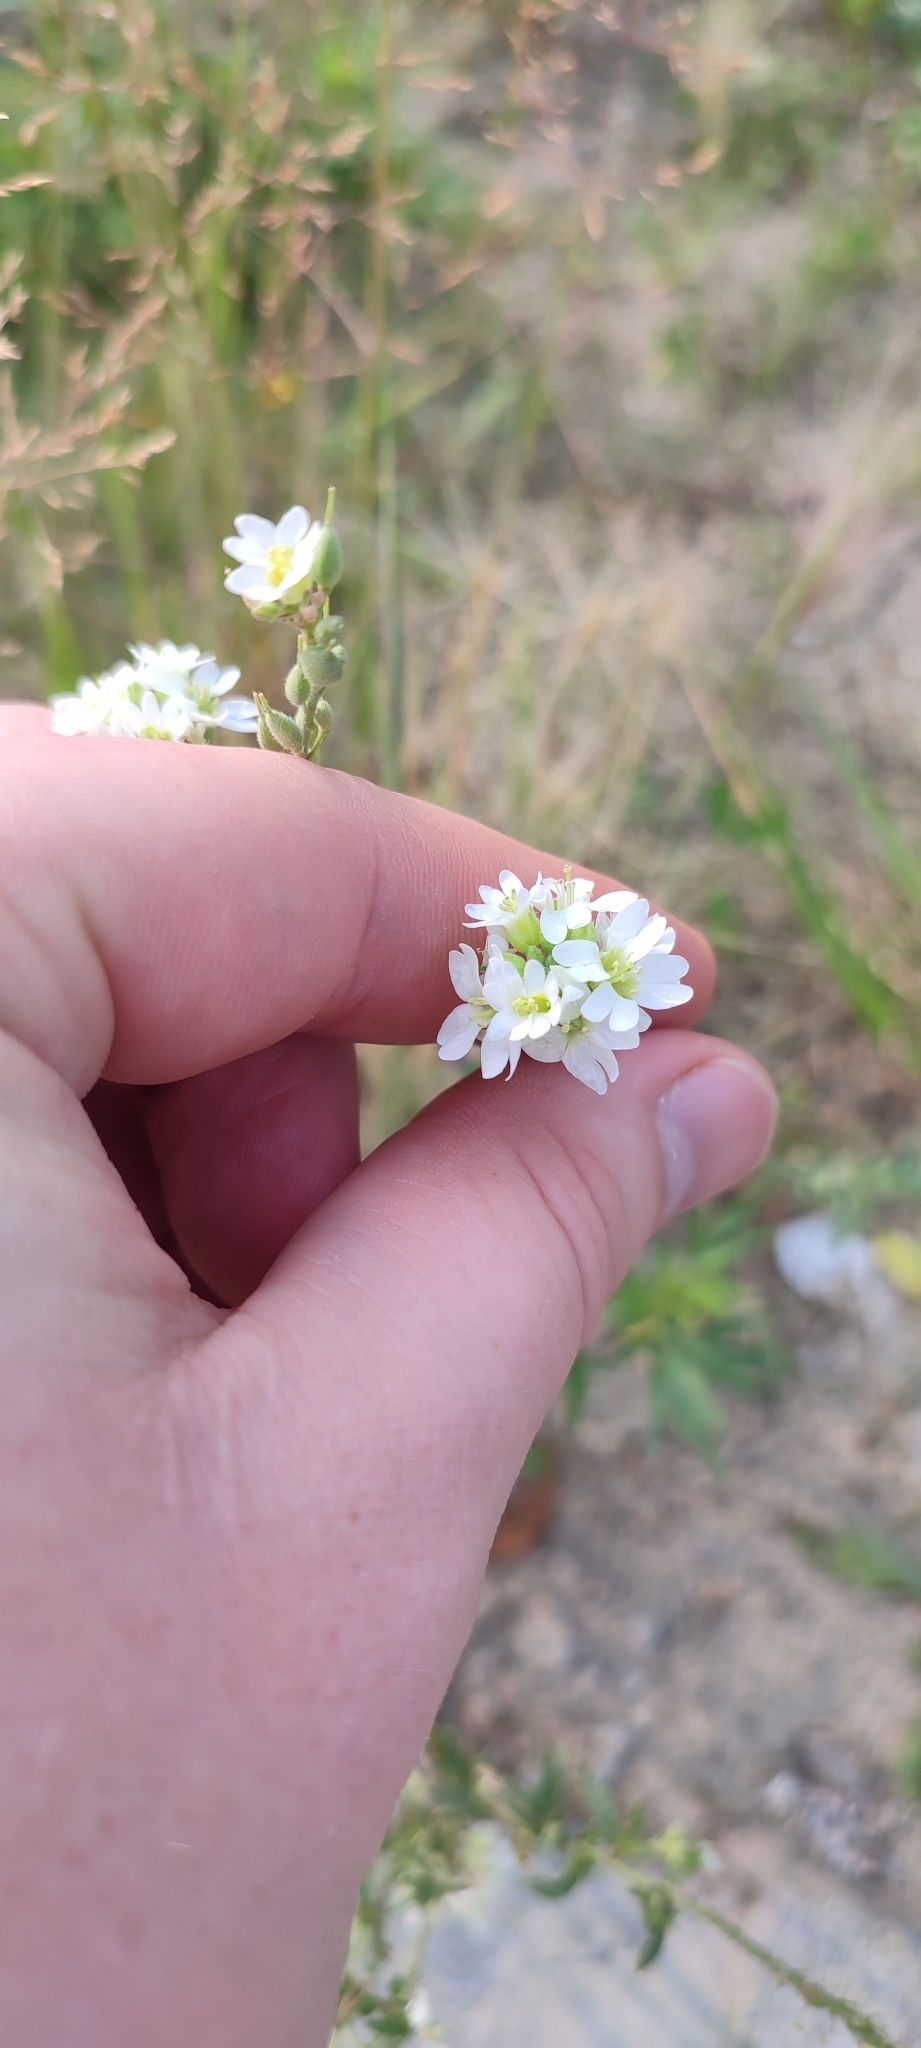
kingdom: Plantae
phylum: Tracheophyta
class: Magnoliopsida
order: Brassicales
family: Brassicaceae
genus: Berteroa
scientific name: Berteroa incana
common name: Hoary alison
